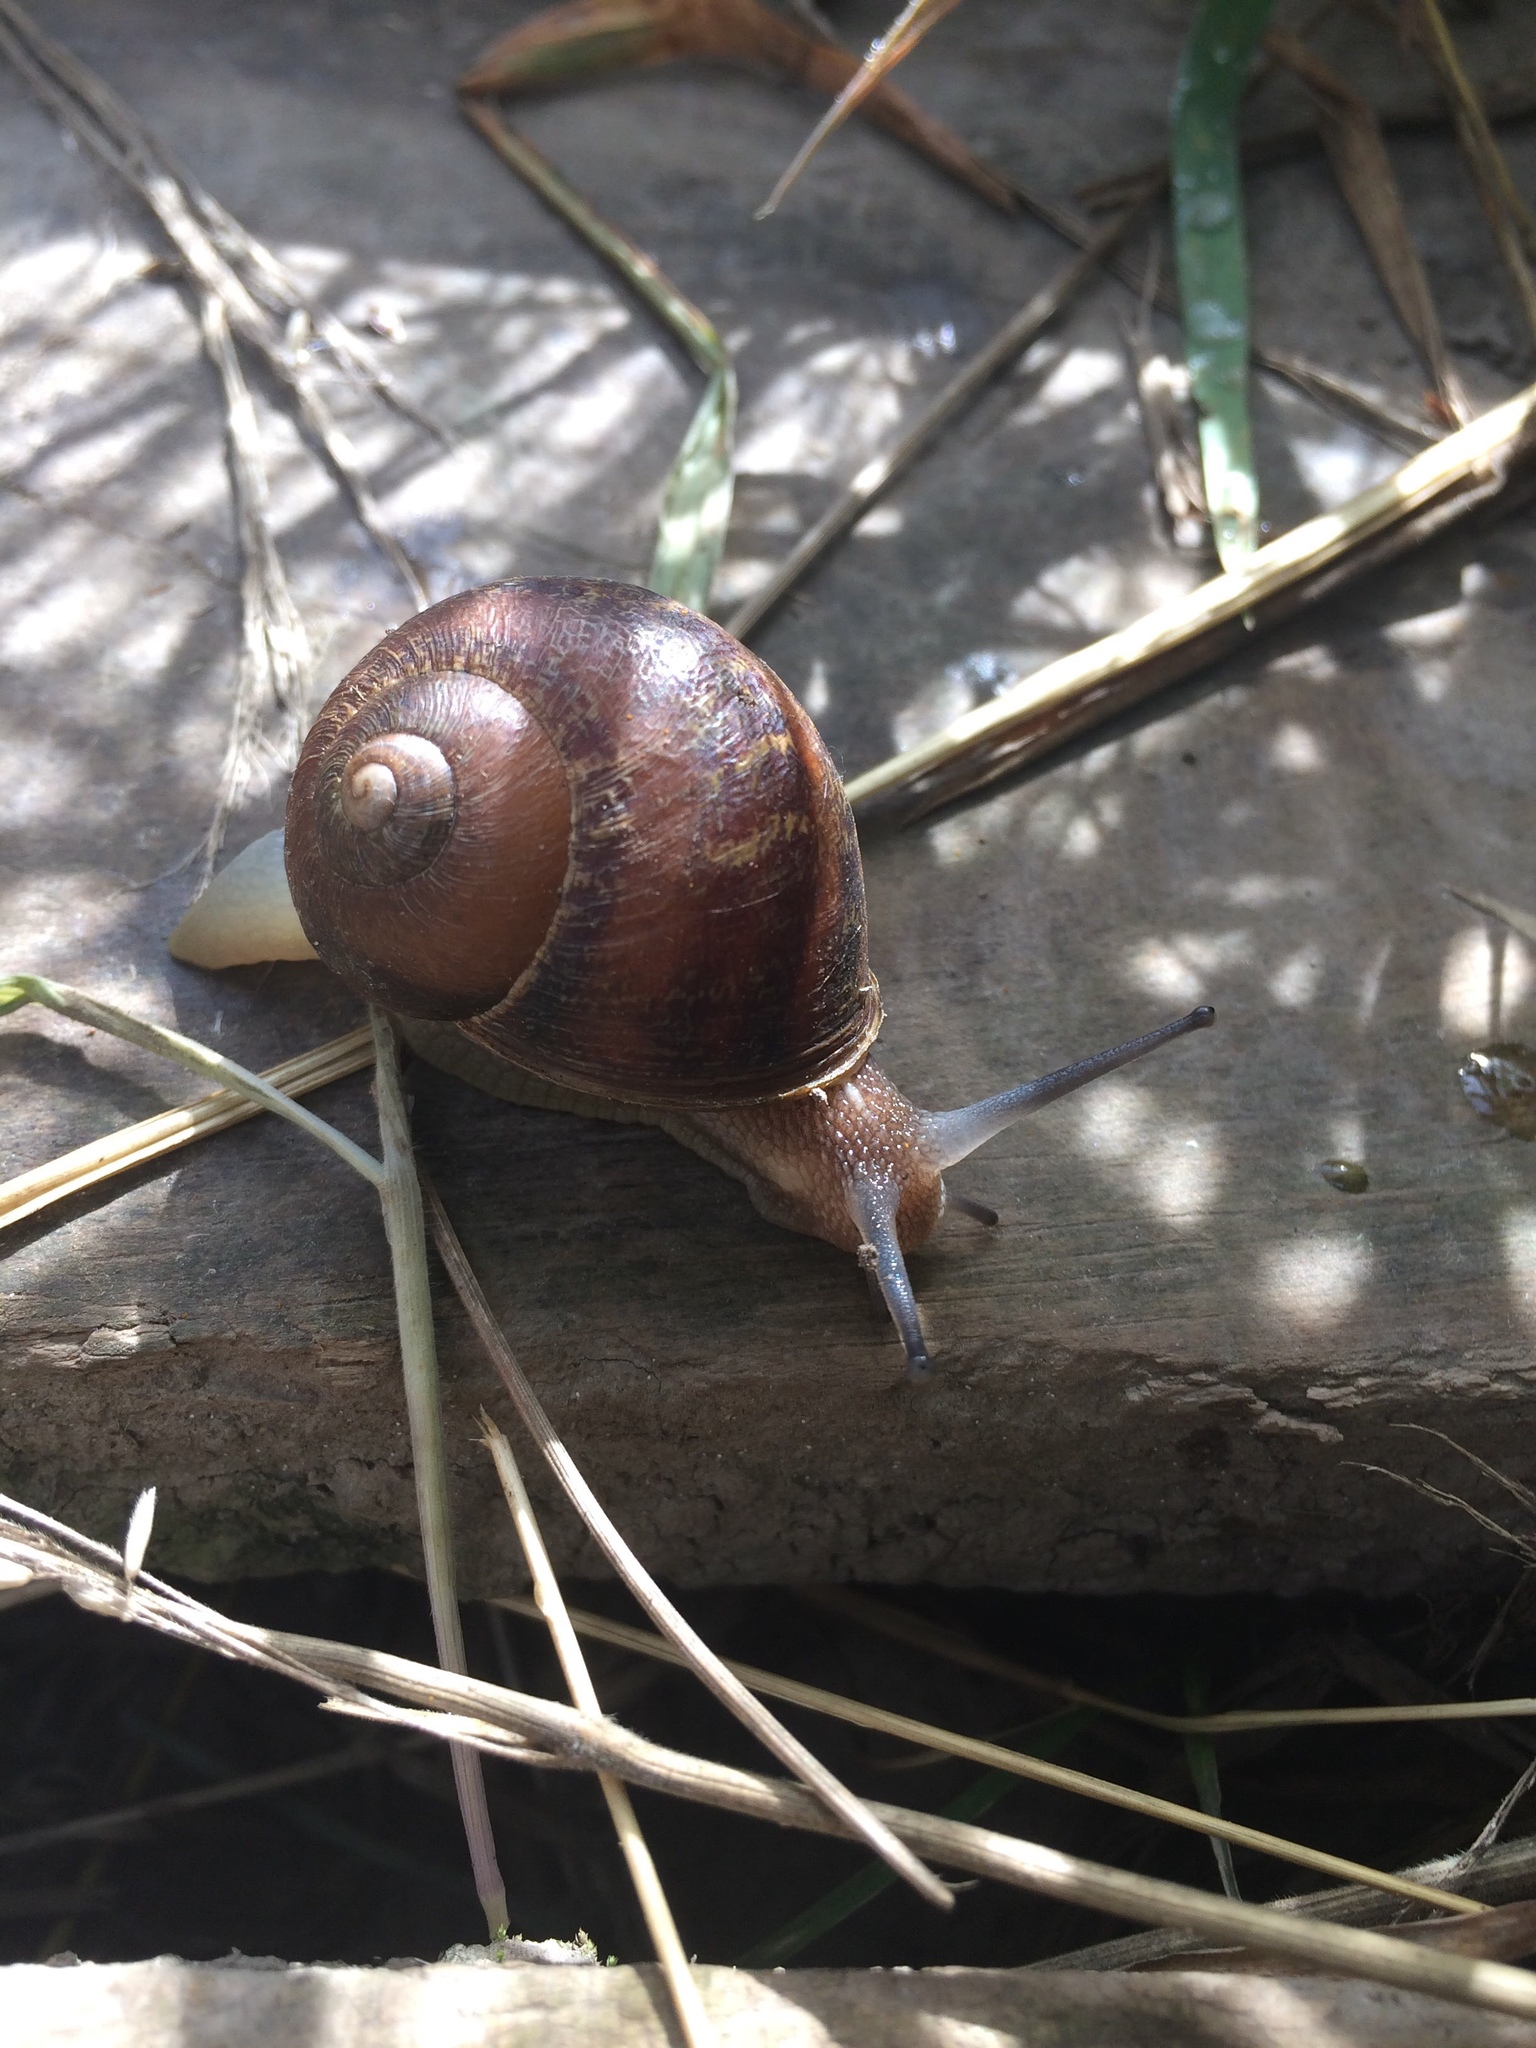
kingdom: Animalia
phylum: Mollusca
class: Gastropoda
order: Stylommatophora
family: Helicidae
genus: Cornu
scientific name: Cornu aspersum
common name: Brown garden snail
